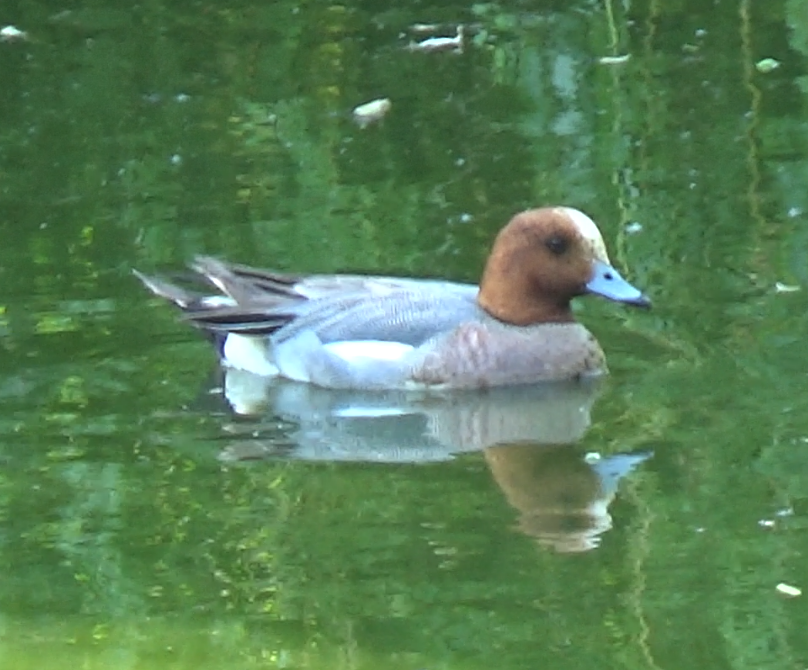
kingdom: Animalia
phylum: Chordata
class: Aves
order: Anseriformes
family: Anatidae
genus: Mareca
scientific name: Mareca penelope
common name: Eurasian wigeon
